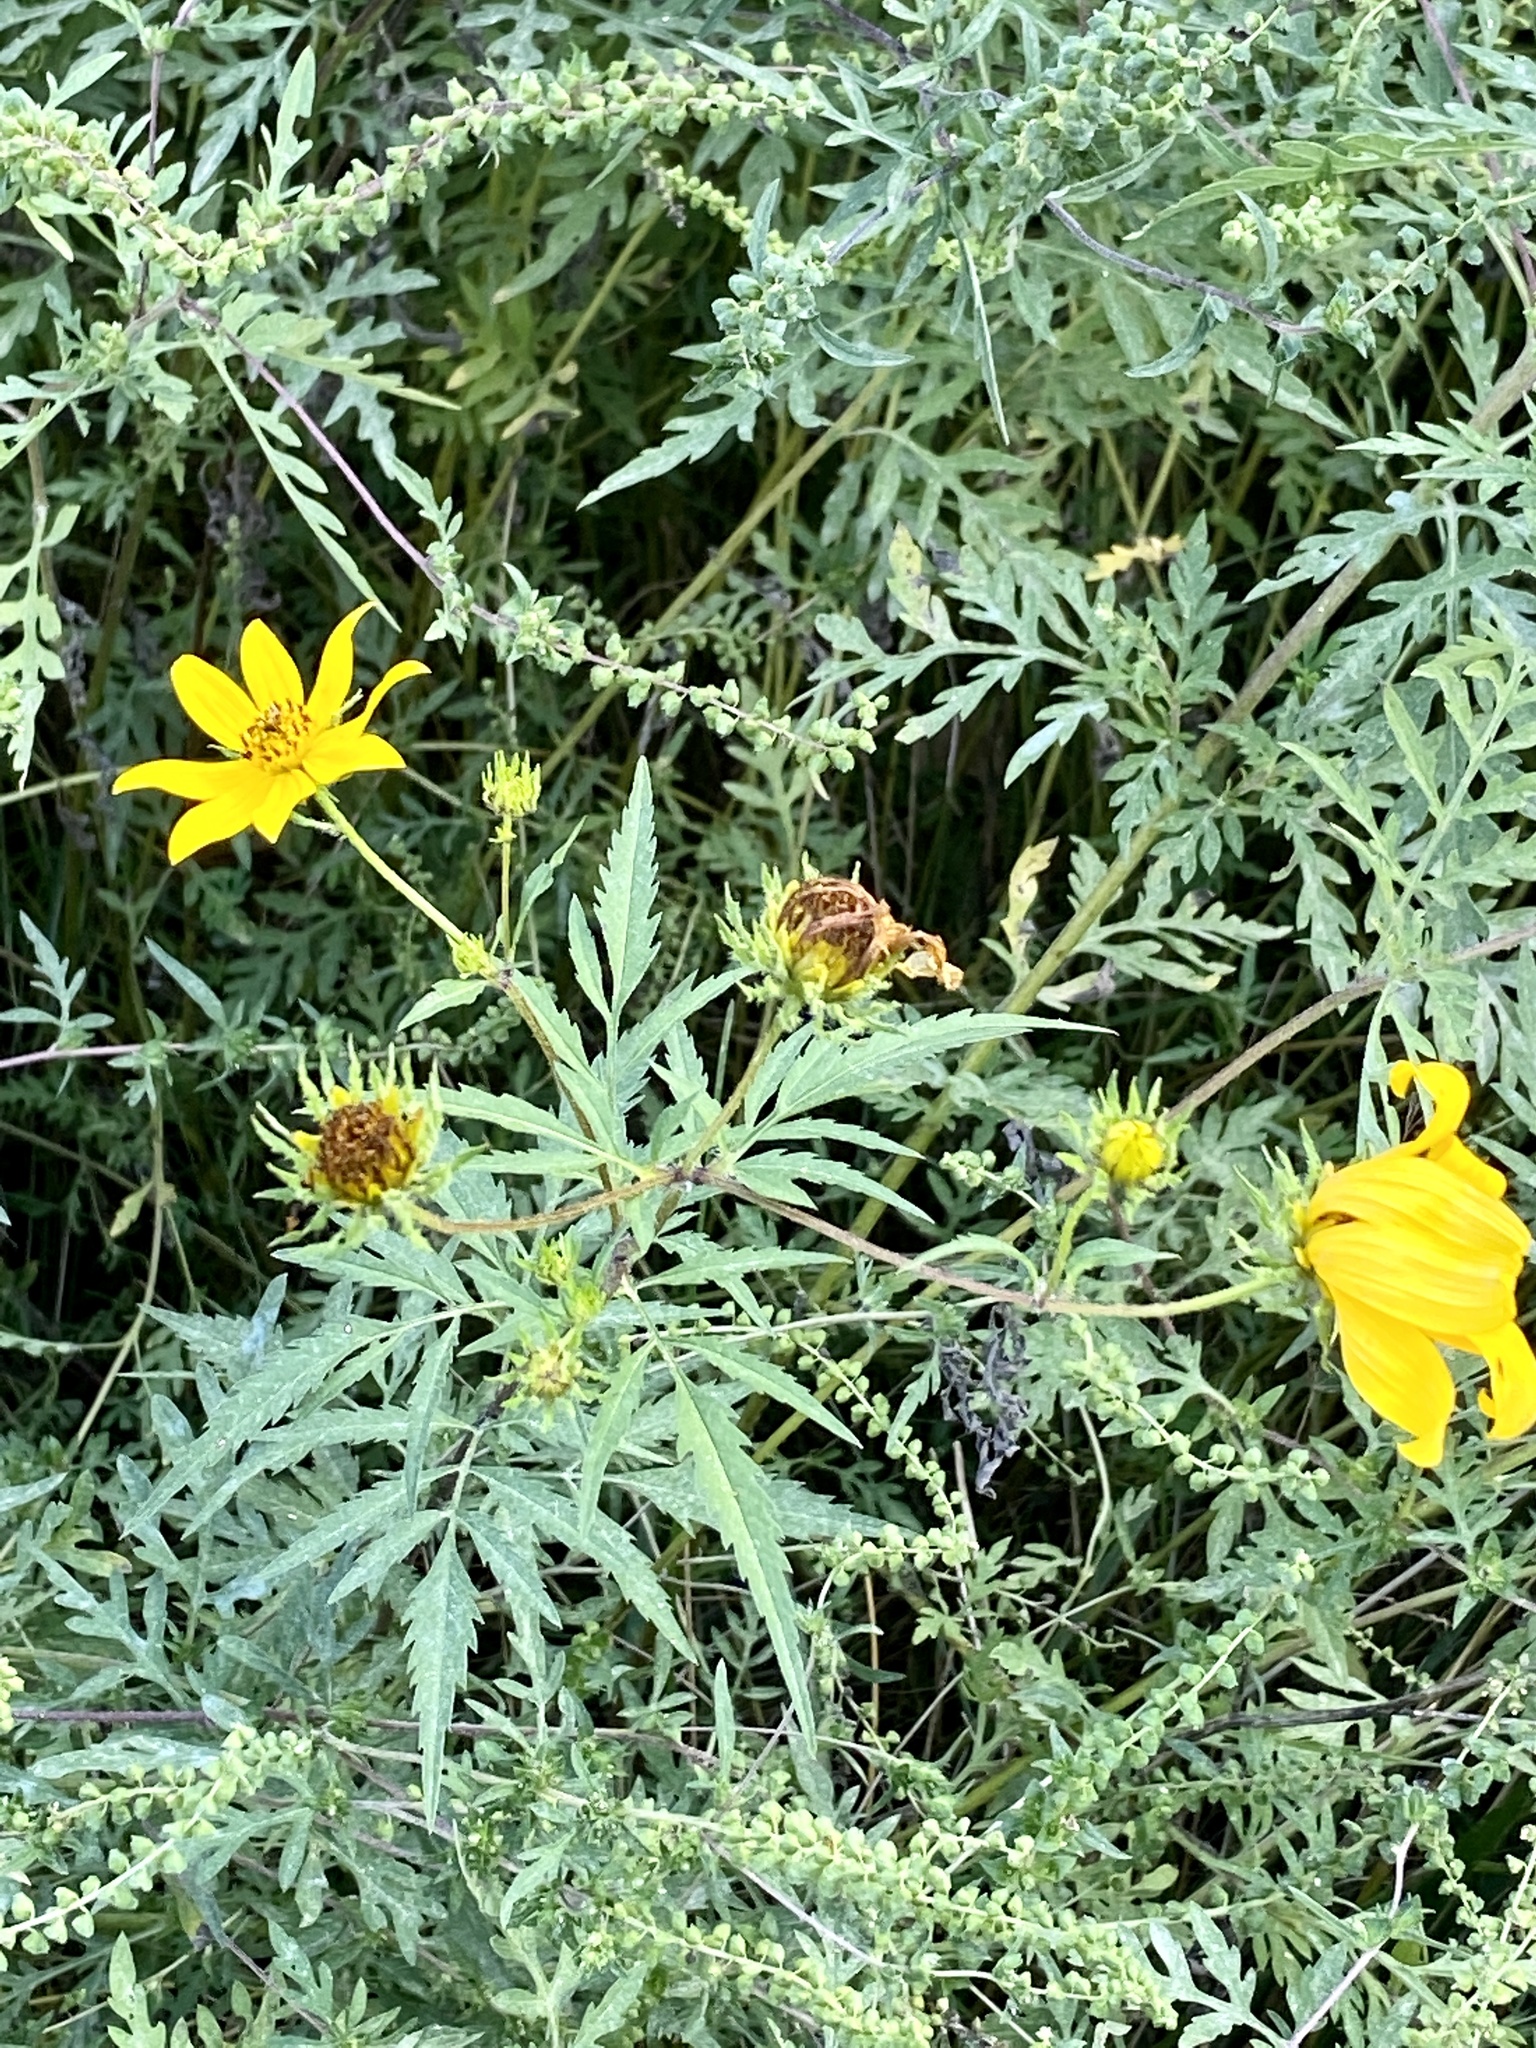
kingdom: Plantae
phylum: Tracheophyta
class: Magnoliopsida
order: Asterales
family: Asteraceae
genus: Bidens
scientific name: Bidens polylepis
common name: Awnless beggarticks
